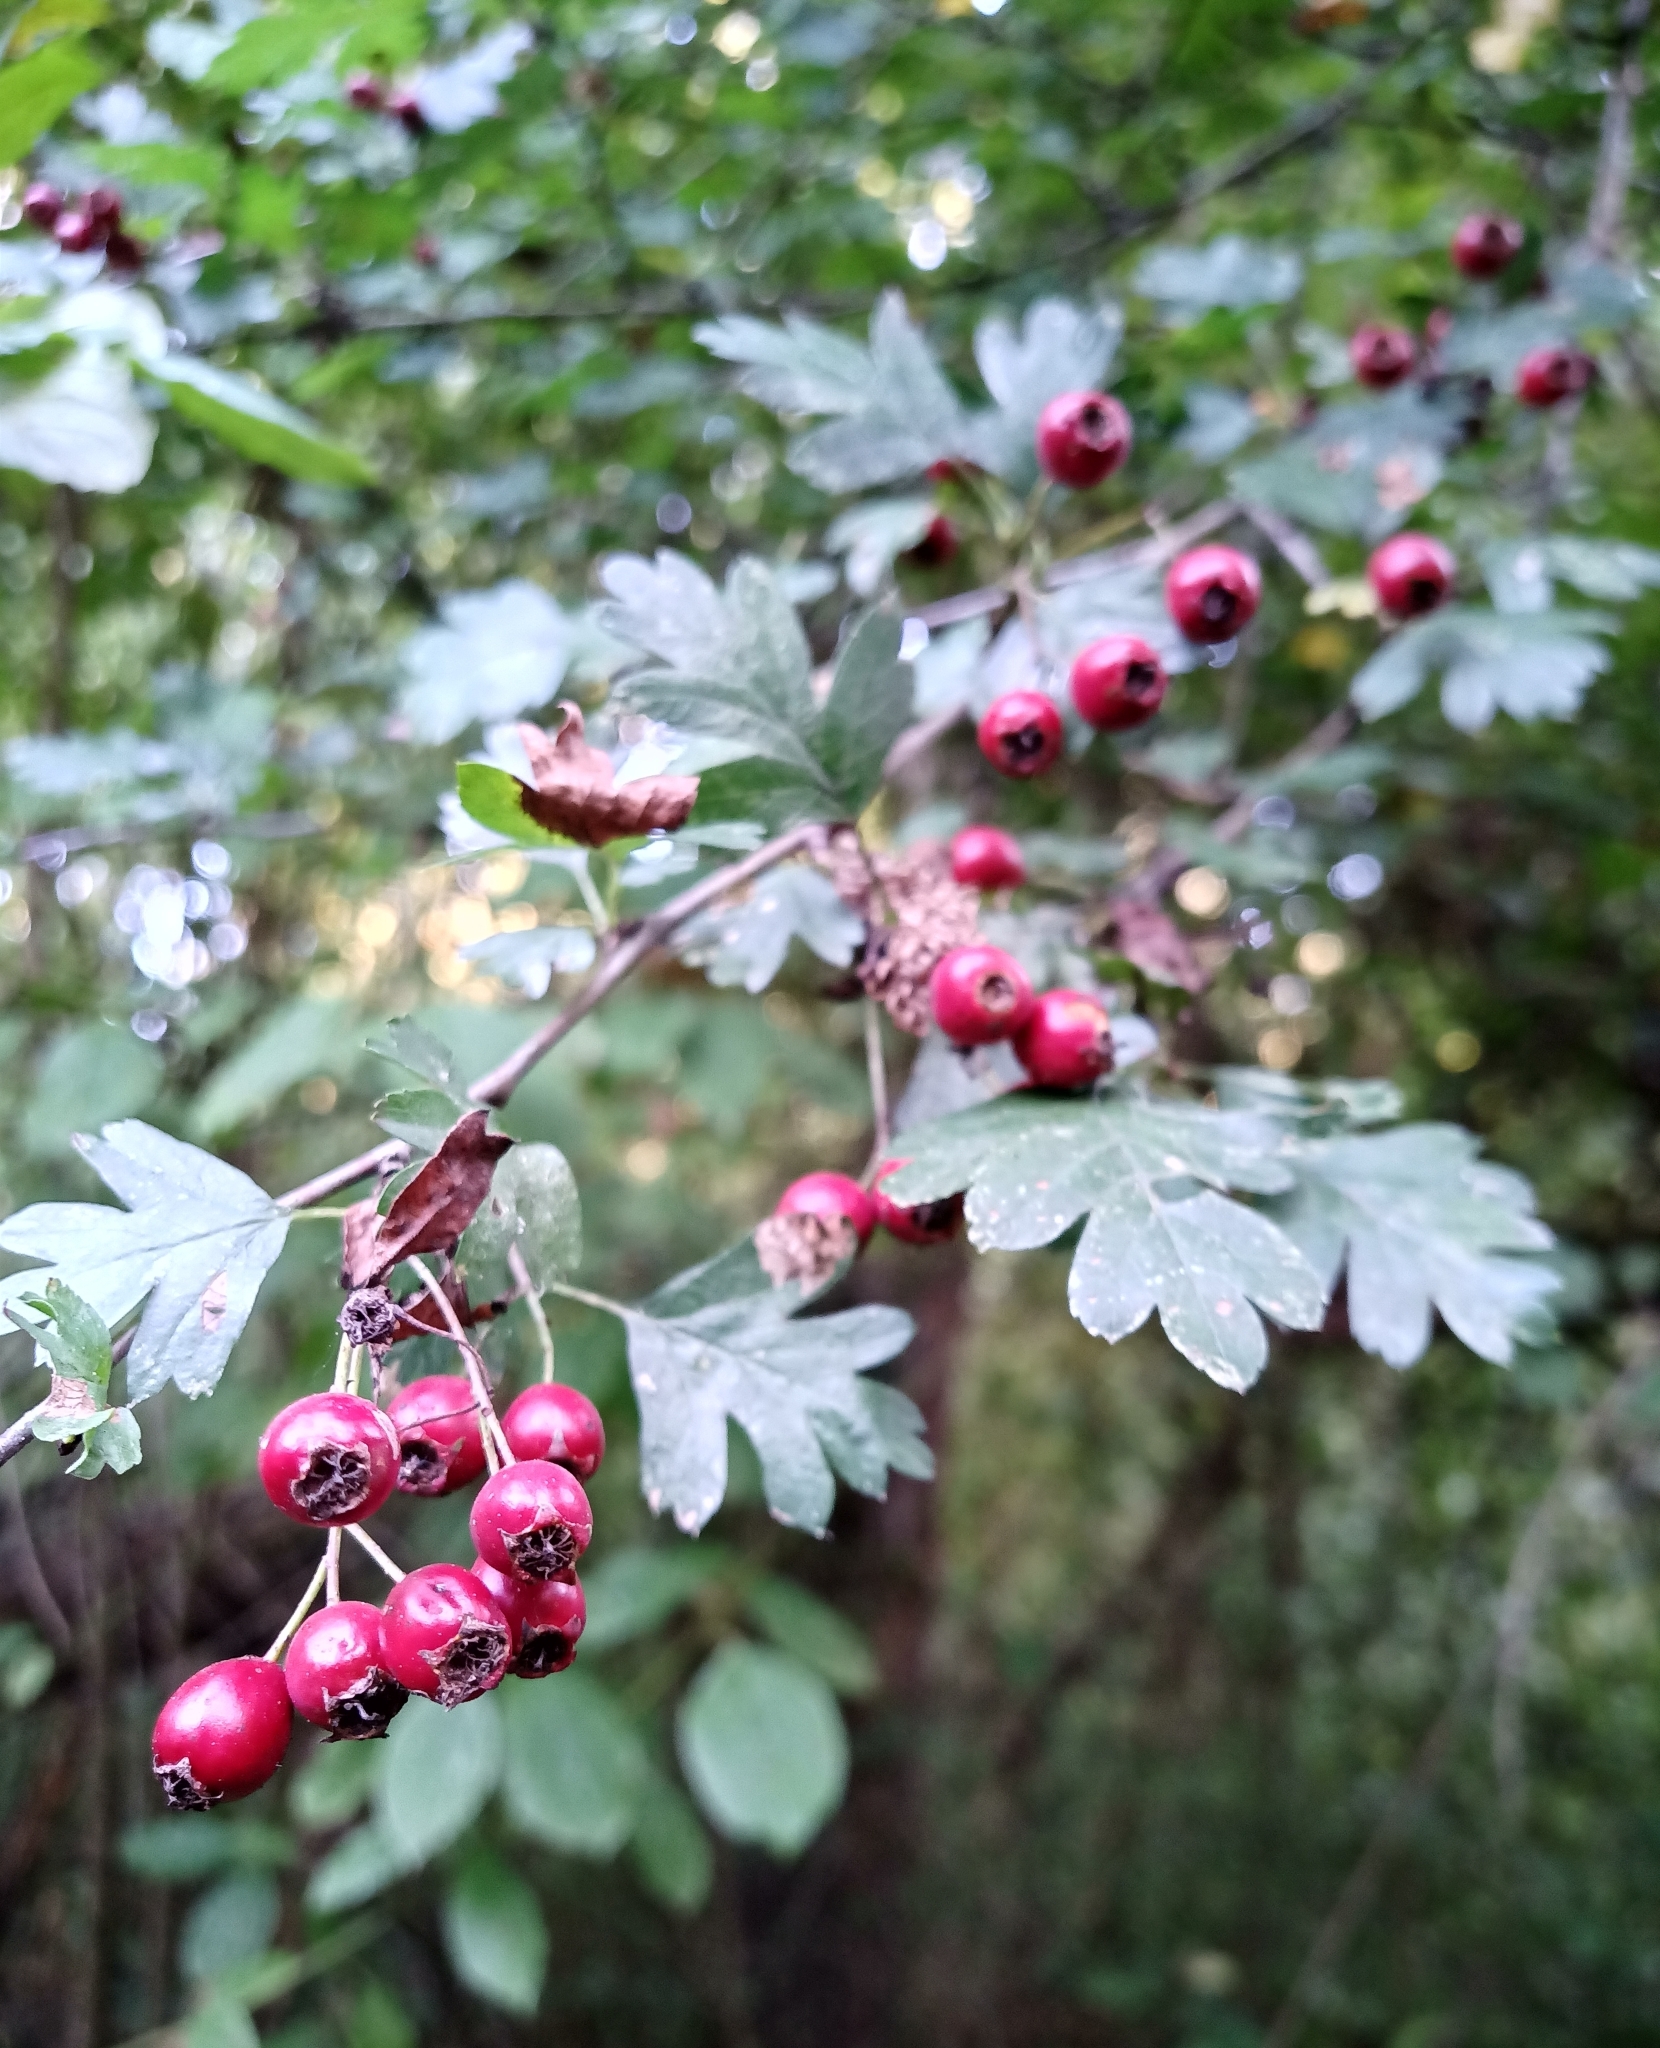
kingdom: Plantae
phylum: Tracheophyta
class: Magnoliopsida
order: Rosales
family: Rosaceae
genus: Crataegus
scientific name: Crataegus monogyna
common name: Hawthorn
